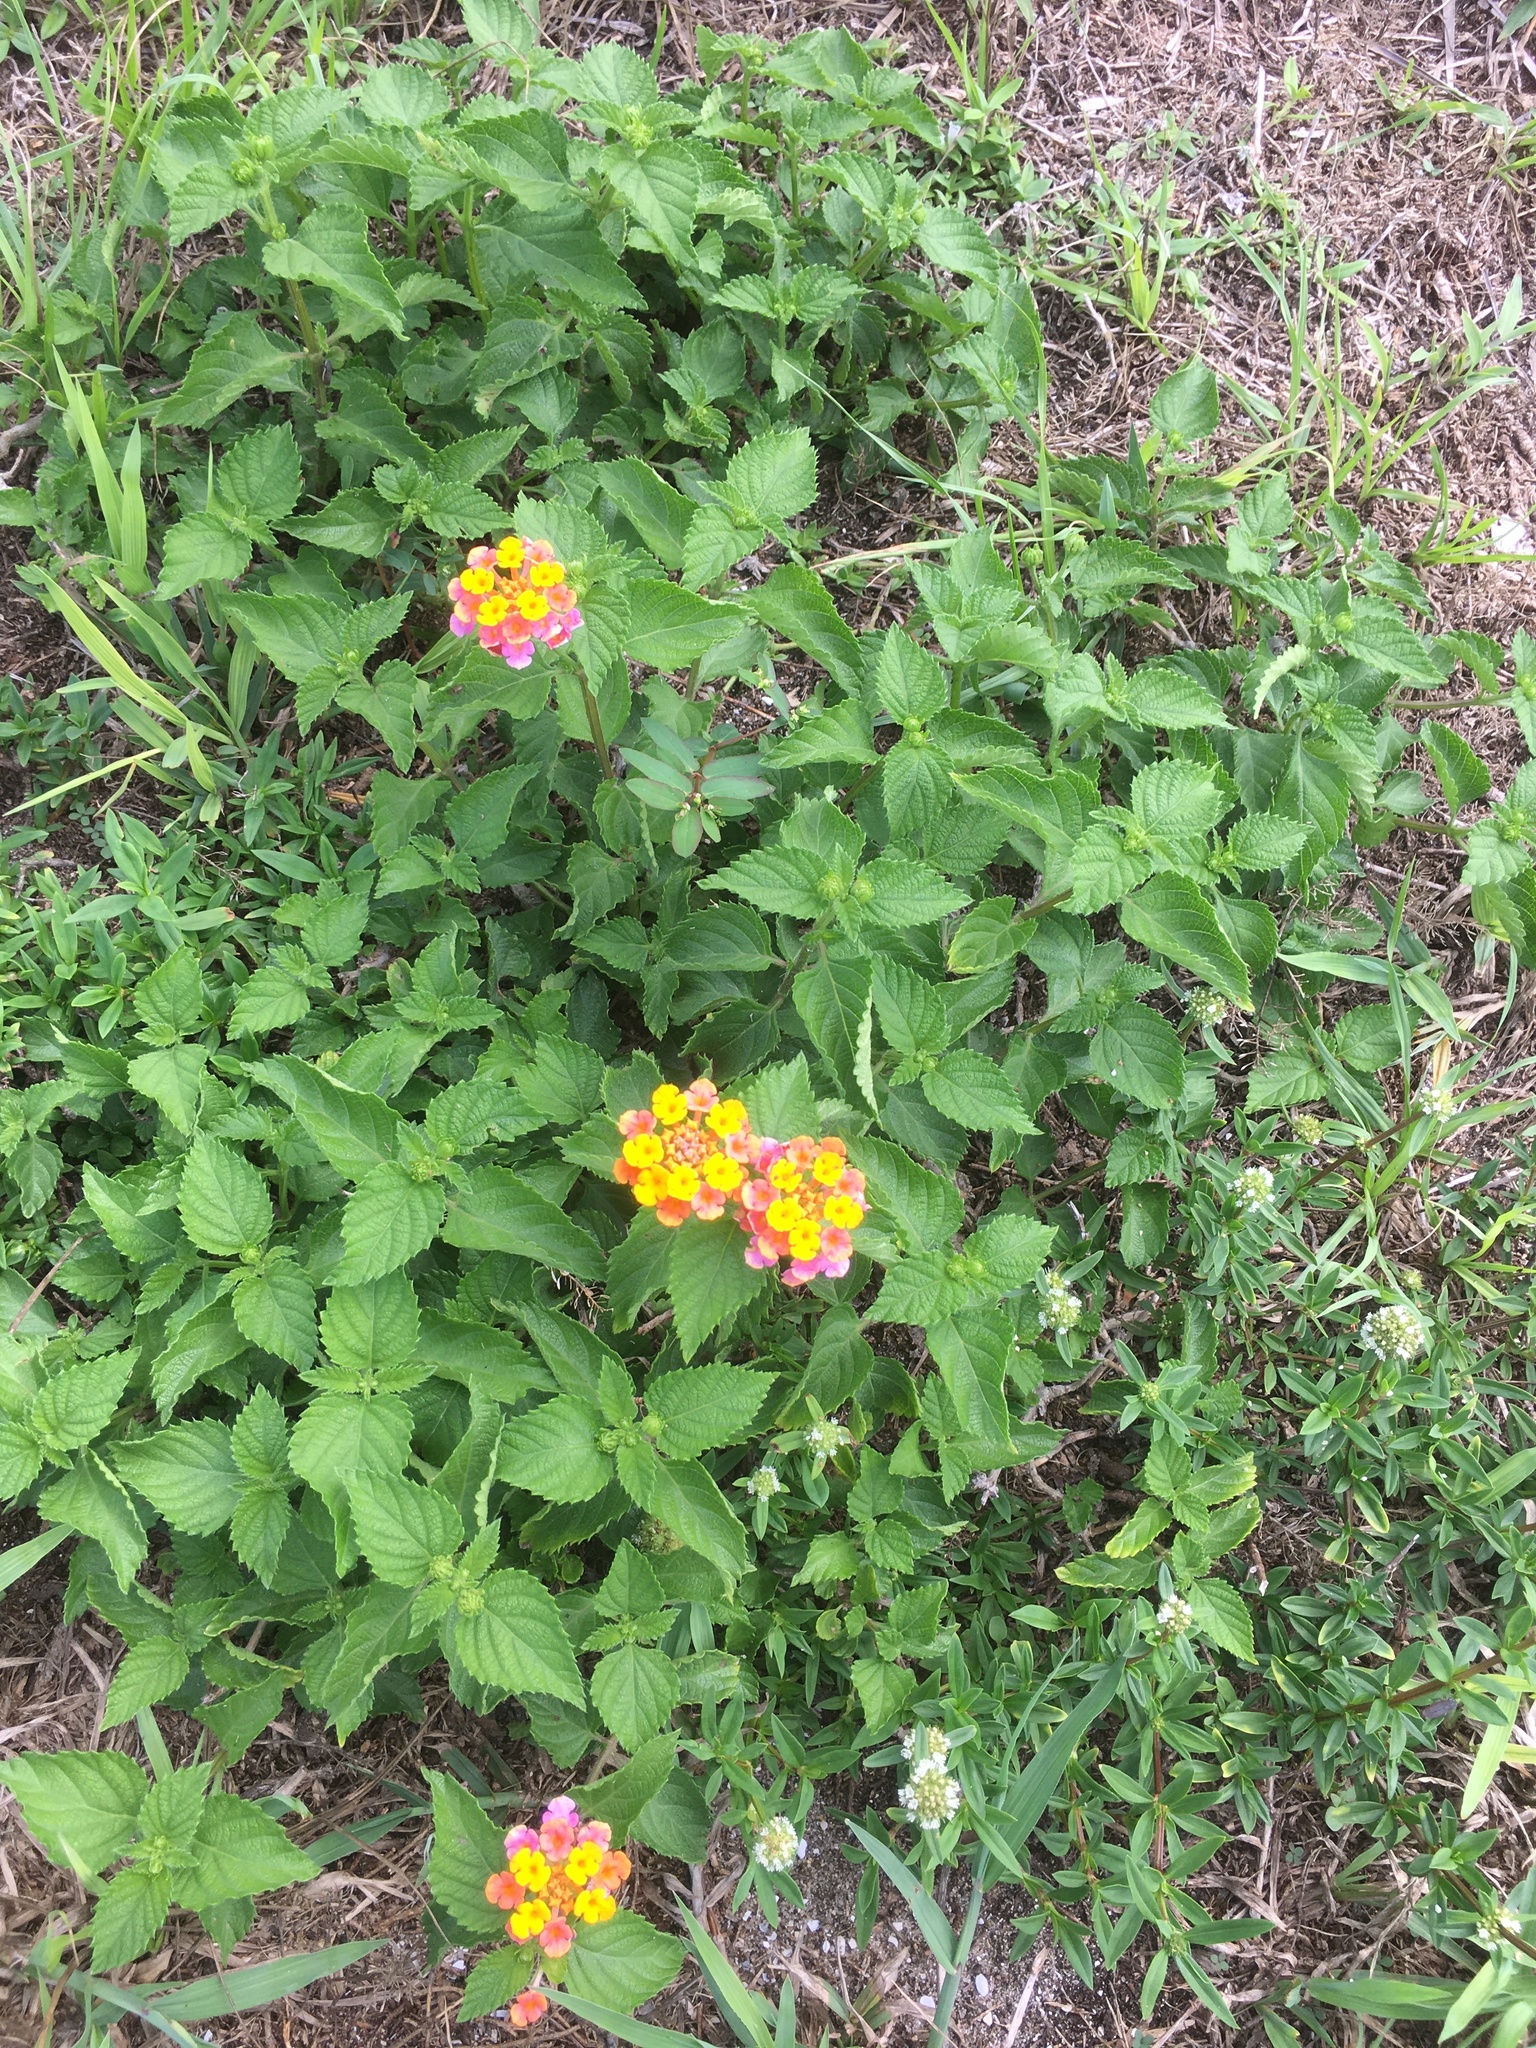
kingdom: Plantae
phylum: Tracheophyta
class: Magnoliopsida
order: Lamiales
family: Verbenaceae
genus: Lantana
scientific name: Lantana camara
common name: Lantana
